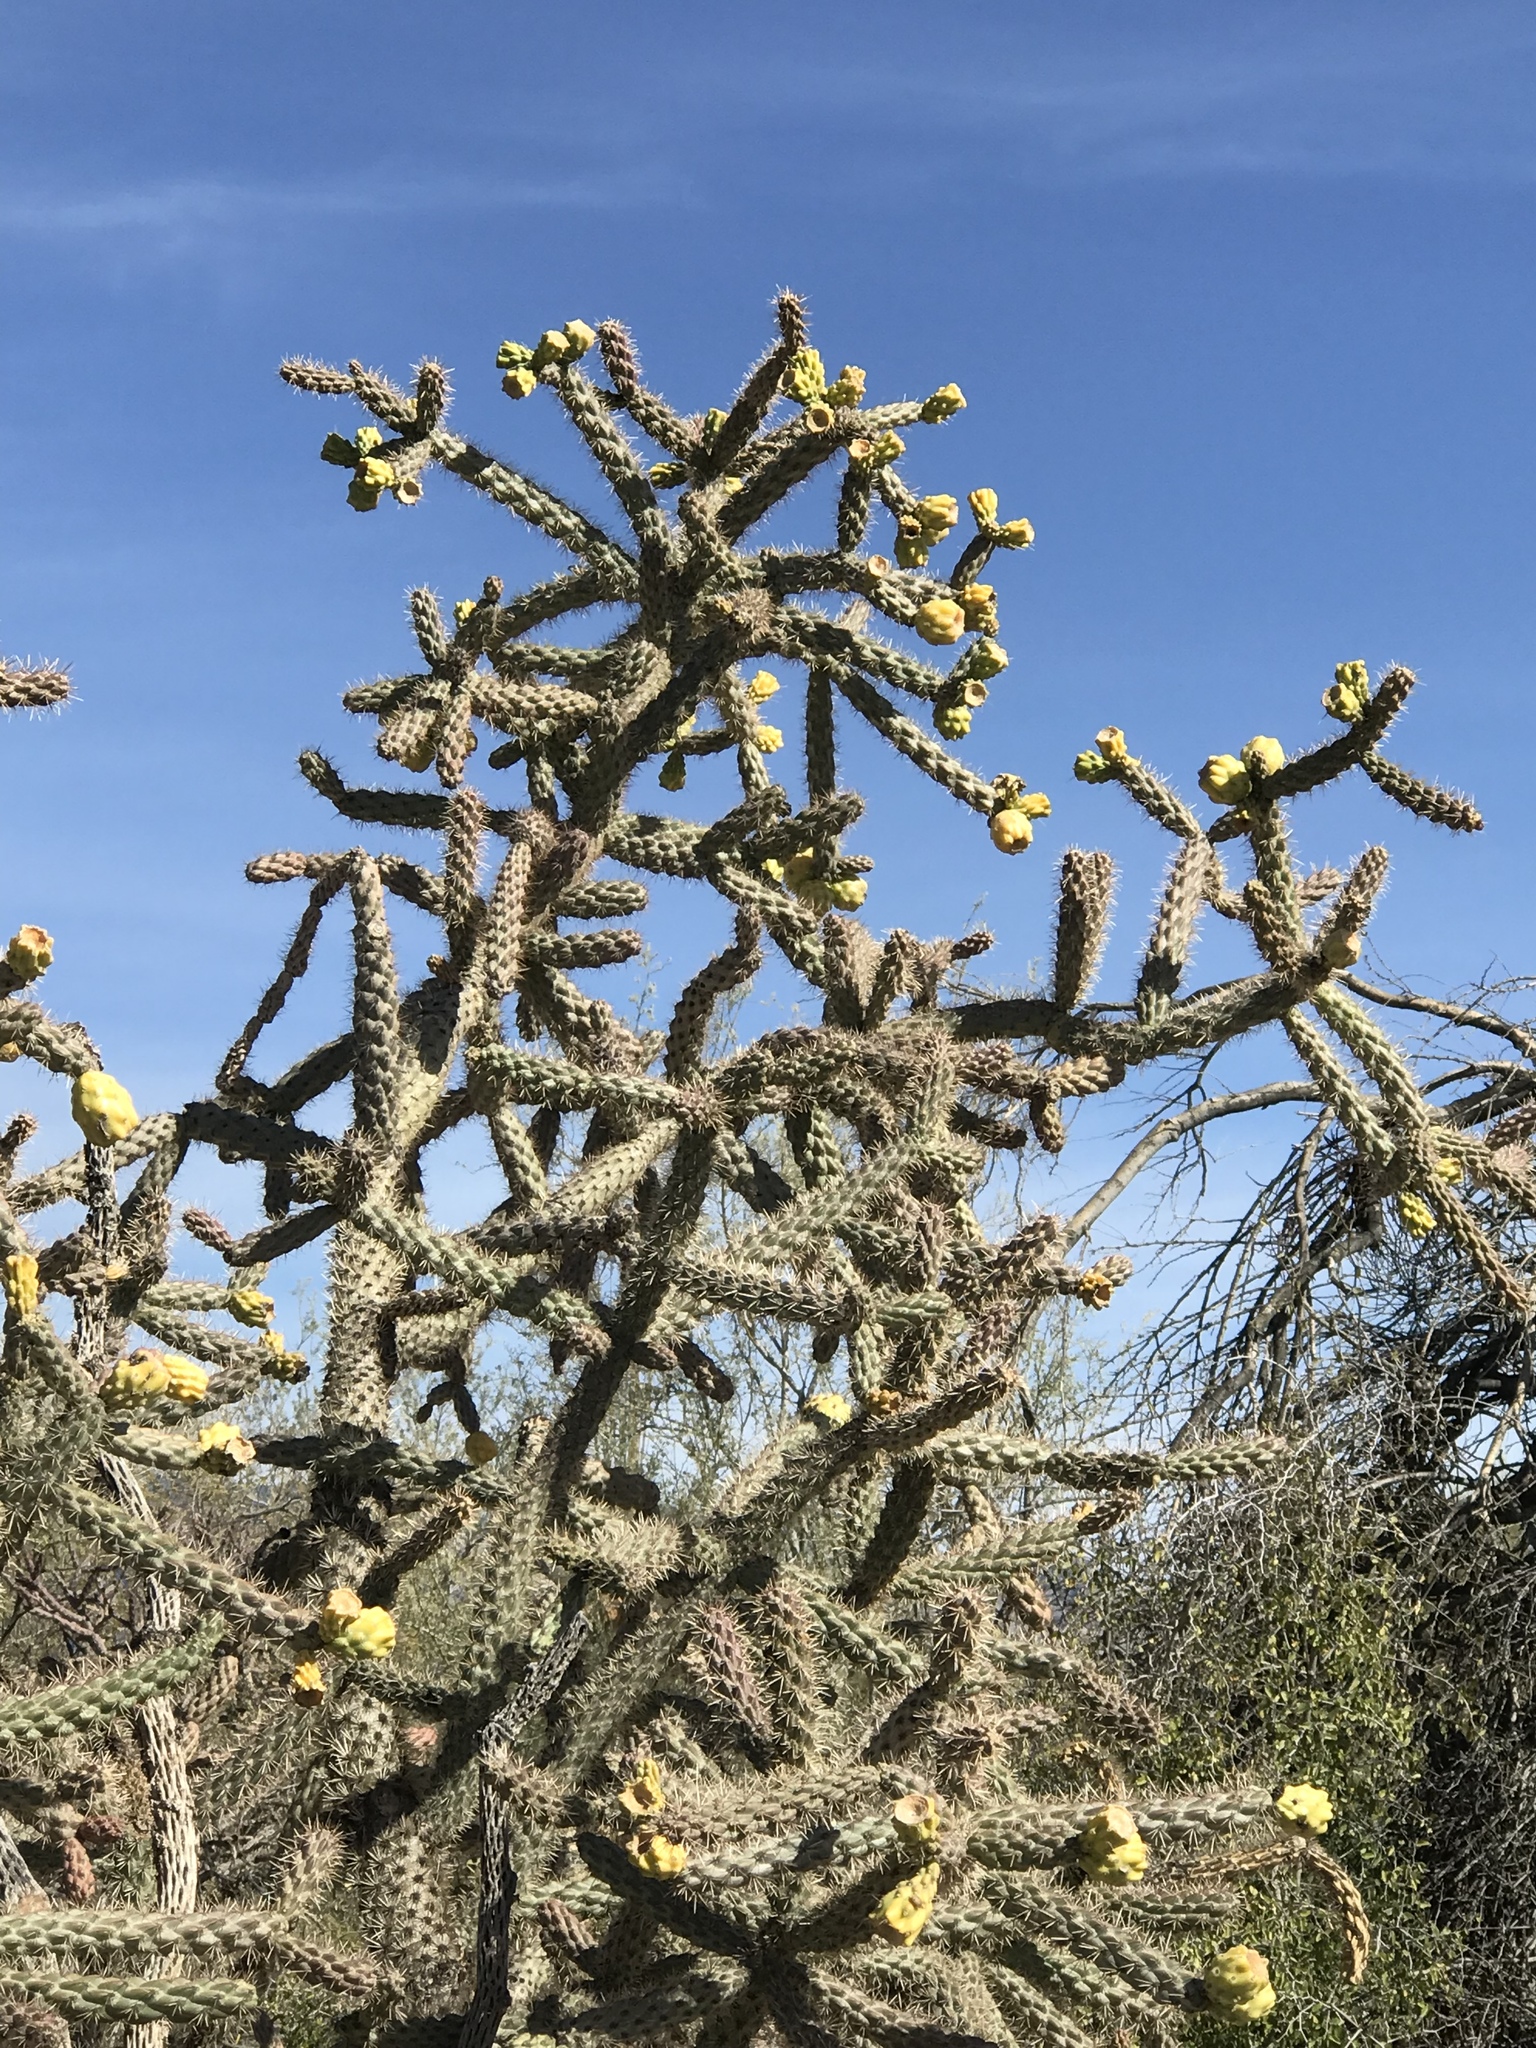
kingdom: Plantae
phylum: Tracheophyta
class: Magnoliopsida
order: Caryophyllales
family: Cactaceae
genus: Cylindropuntia
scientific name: Cylindropuntia imbricata
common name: Candelabrum cactus
